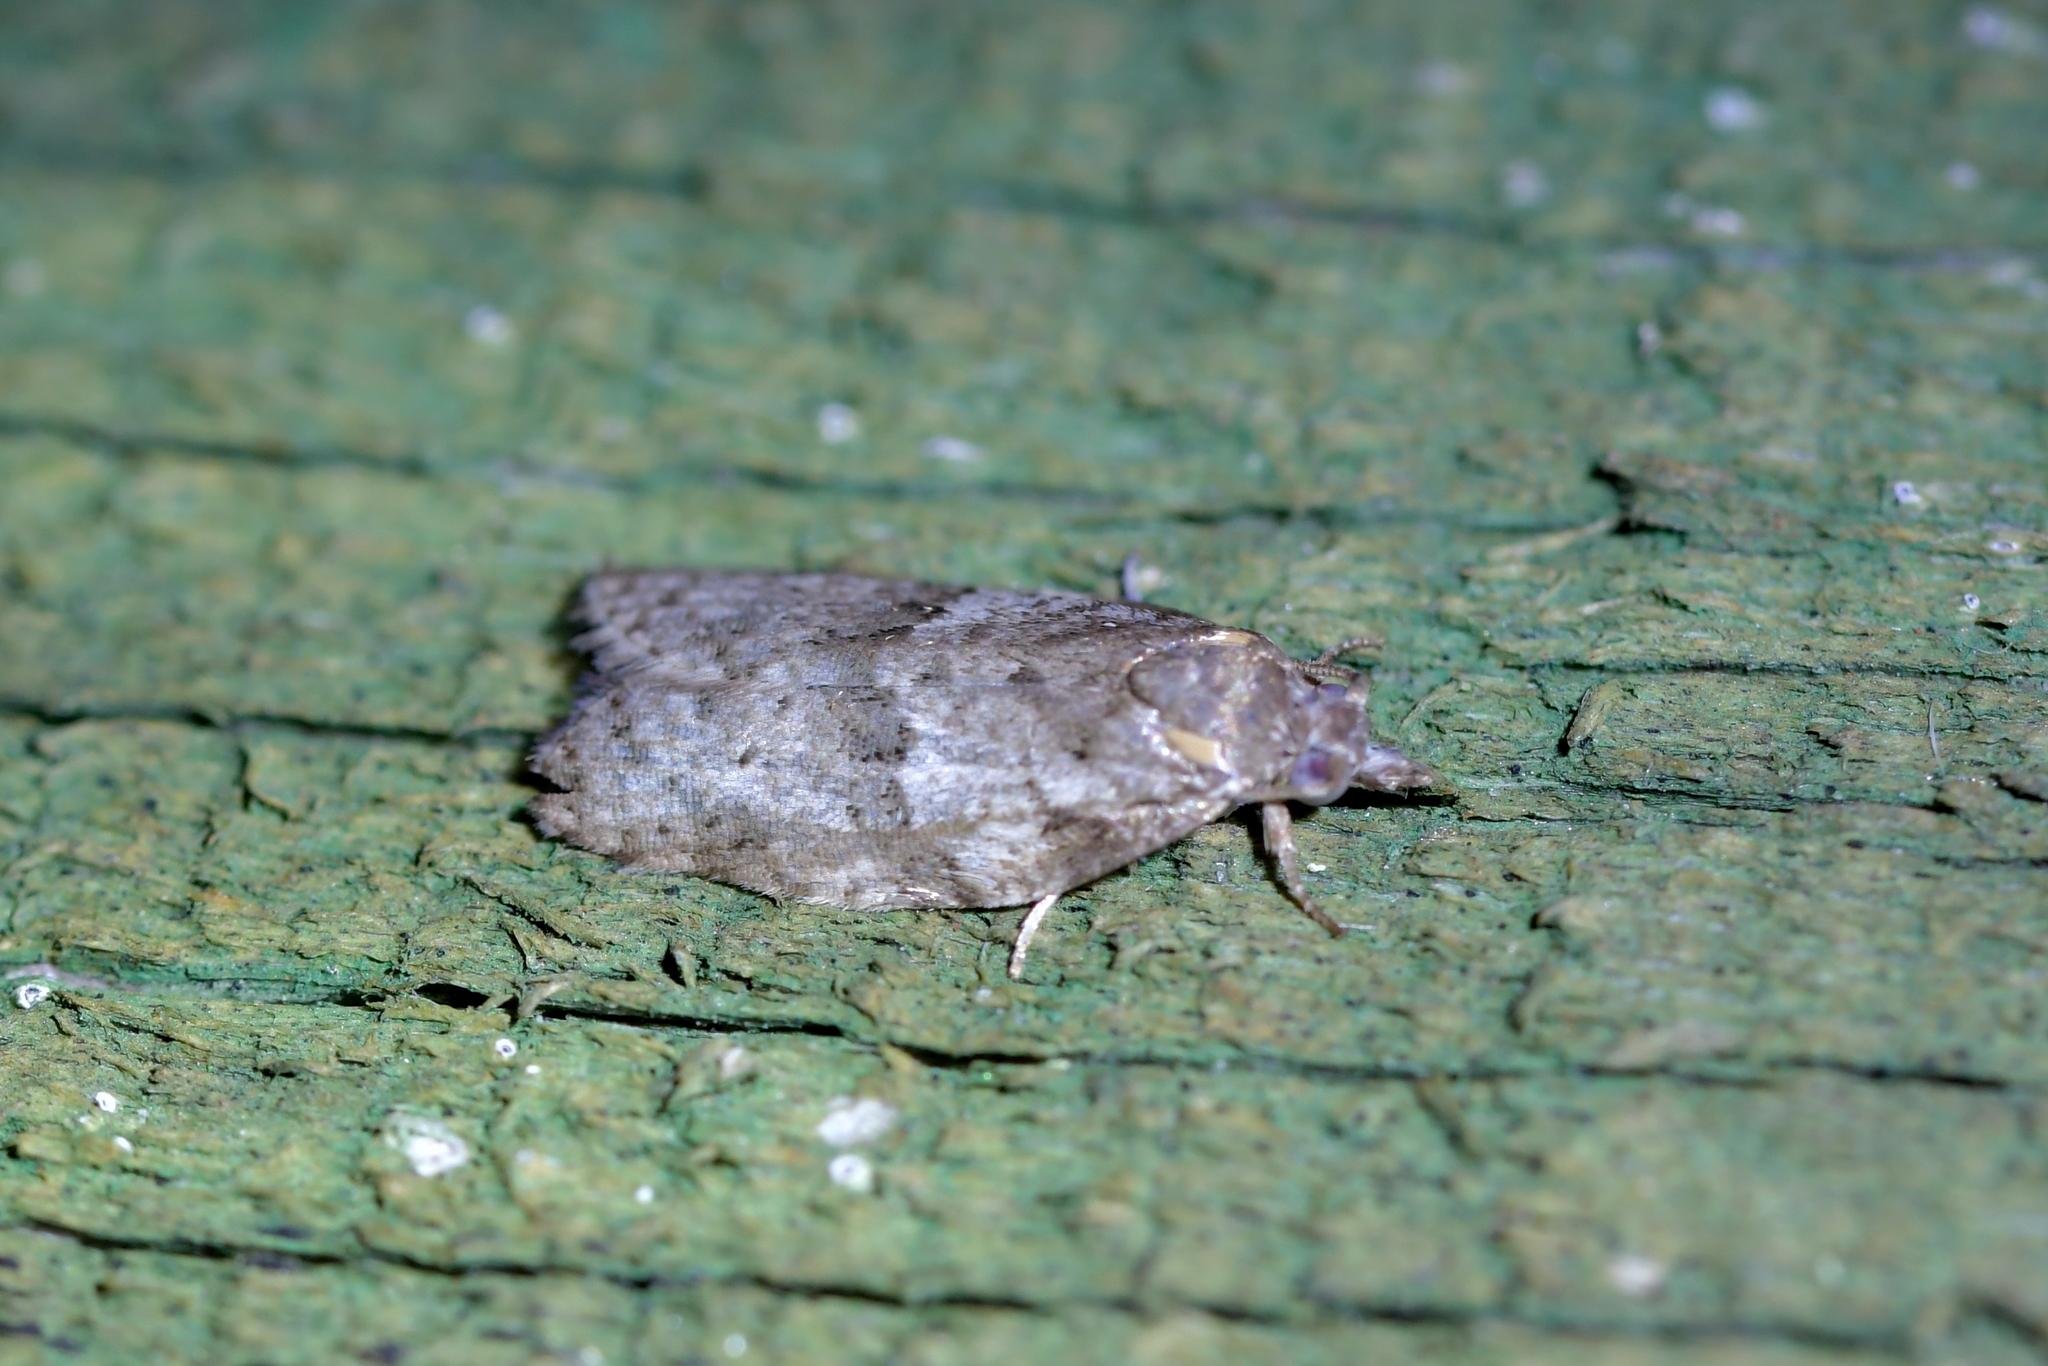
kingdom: Animalia
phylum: Arthropoda
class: Insecta
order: Lepidoptera
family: Tortricidae
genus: Isotenes
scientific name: Isotenes miserana
